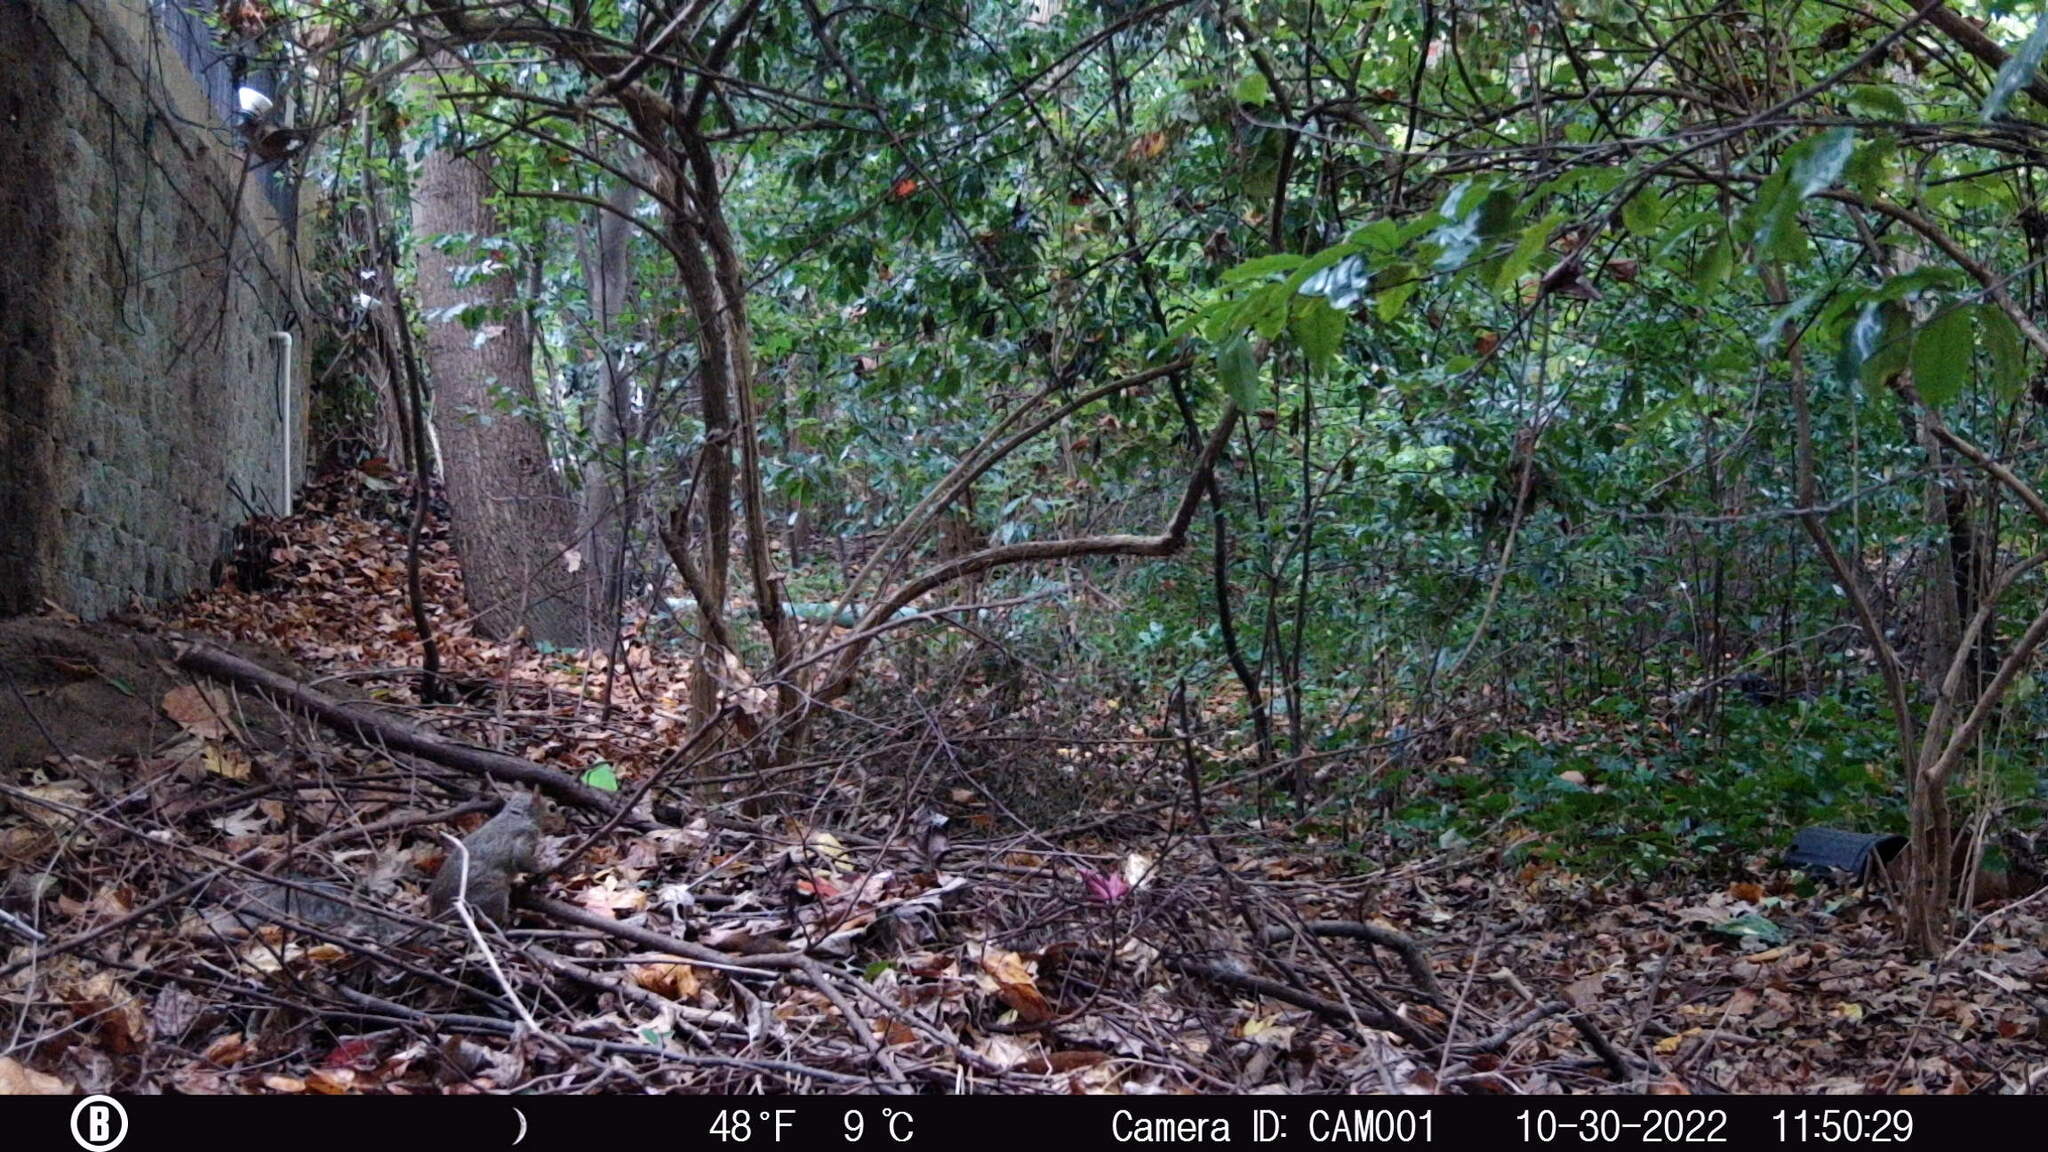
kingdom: Animalia
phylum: Chordata
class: Mammalia
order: Rodentia
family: Sciuridae
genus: Sciurus
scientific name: Sciurus carolinensis
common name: Eastern gray squirrel
